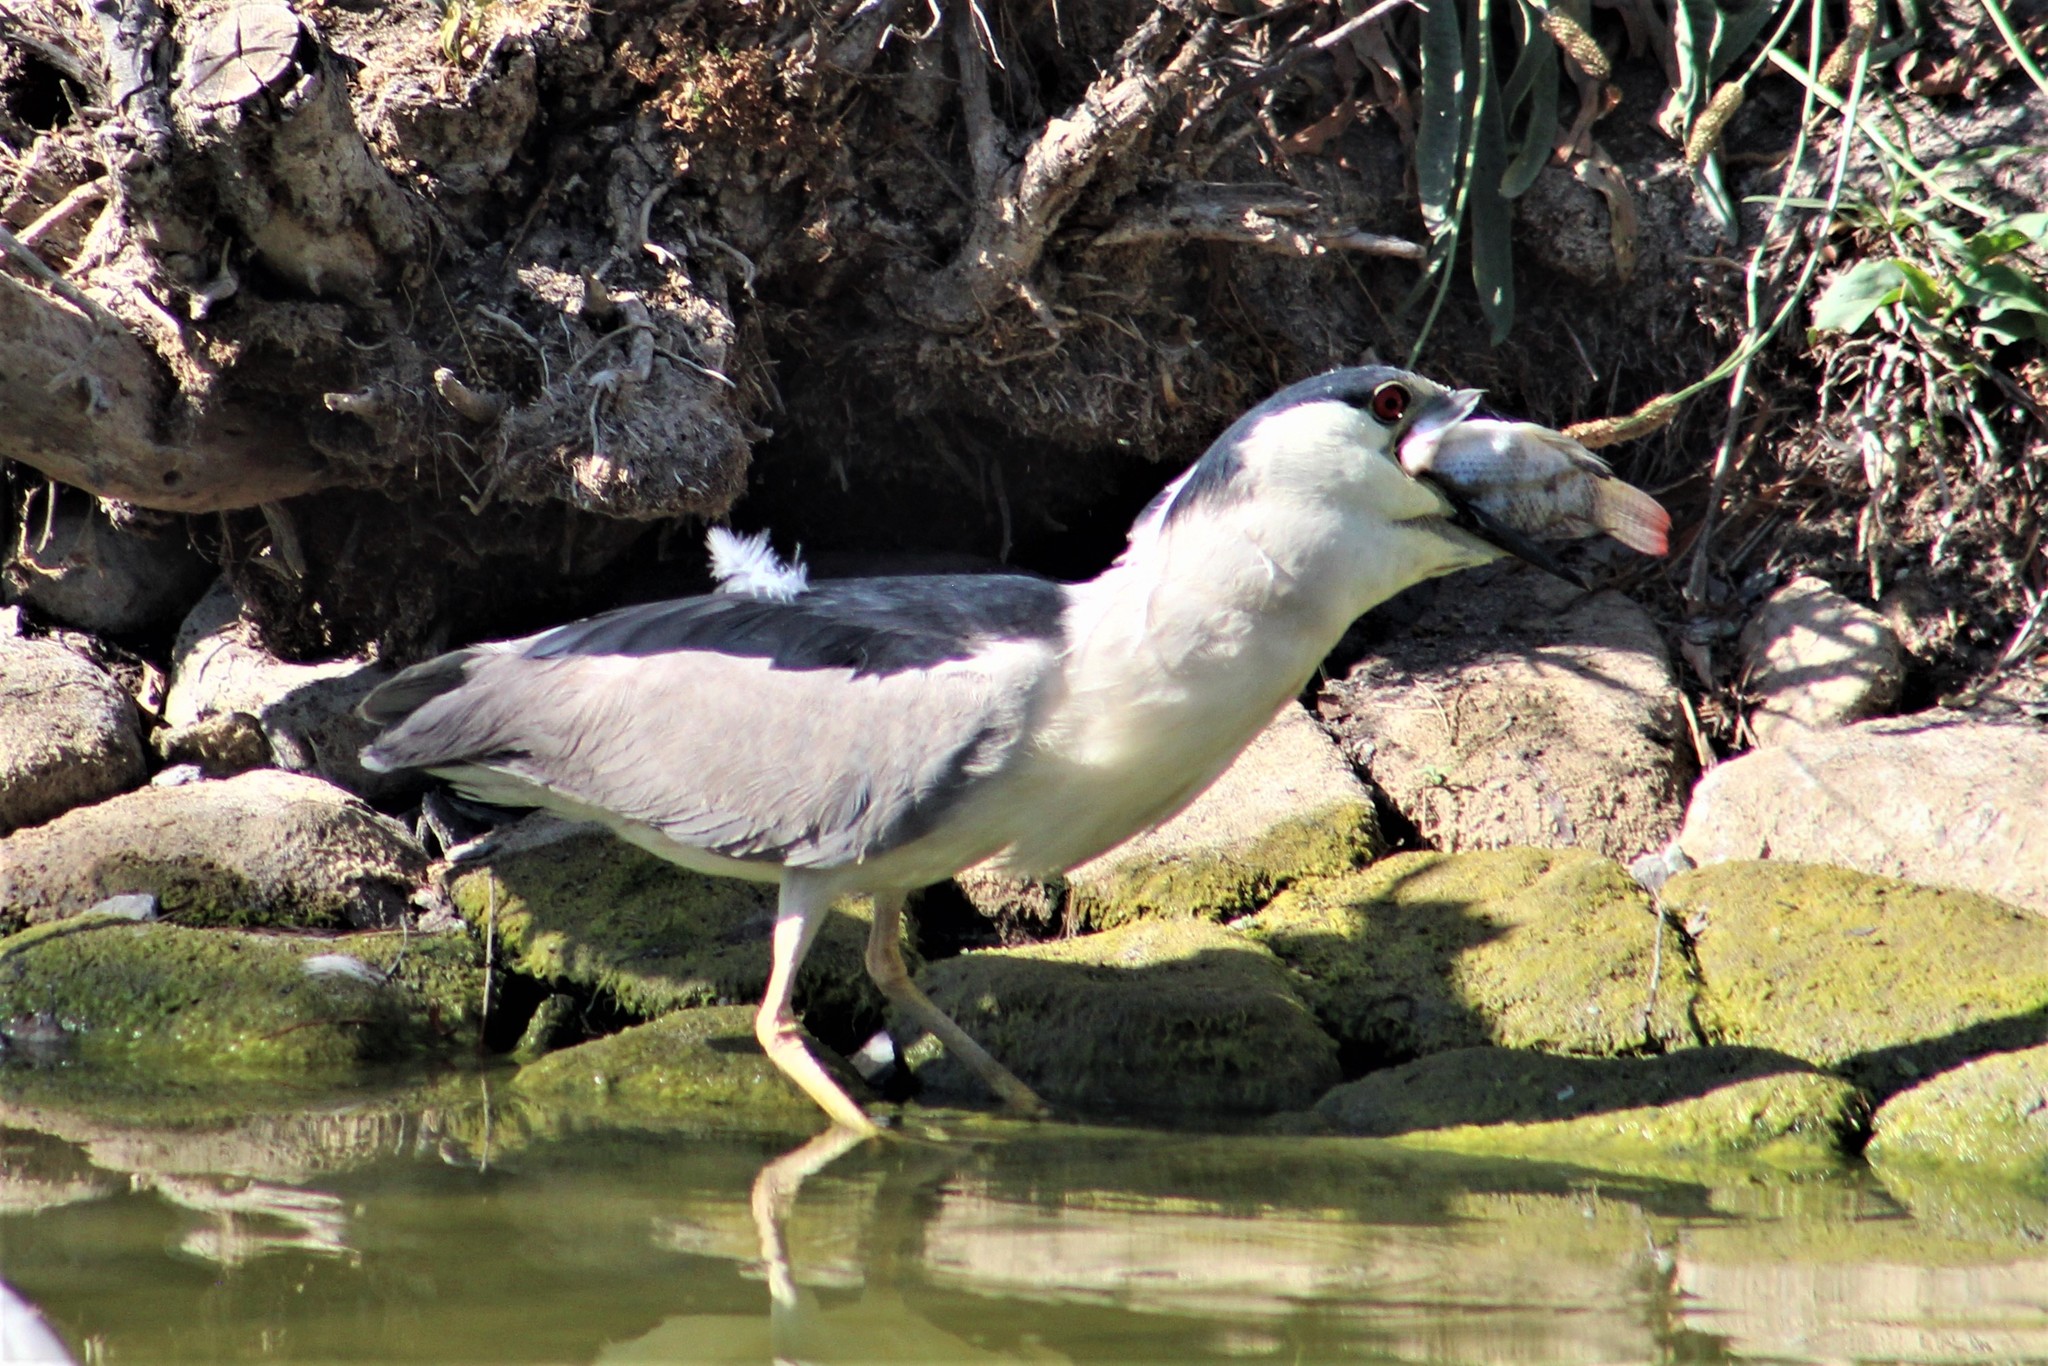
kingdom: Animalia
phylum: Chordata
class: Aves
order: Pelecaniformes
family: Ardeidae
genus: Nycticorax
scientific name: Nycticorax nycticorax
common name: Black-crowned night heron
